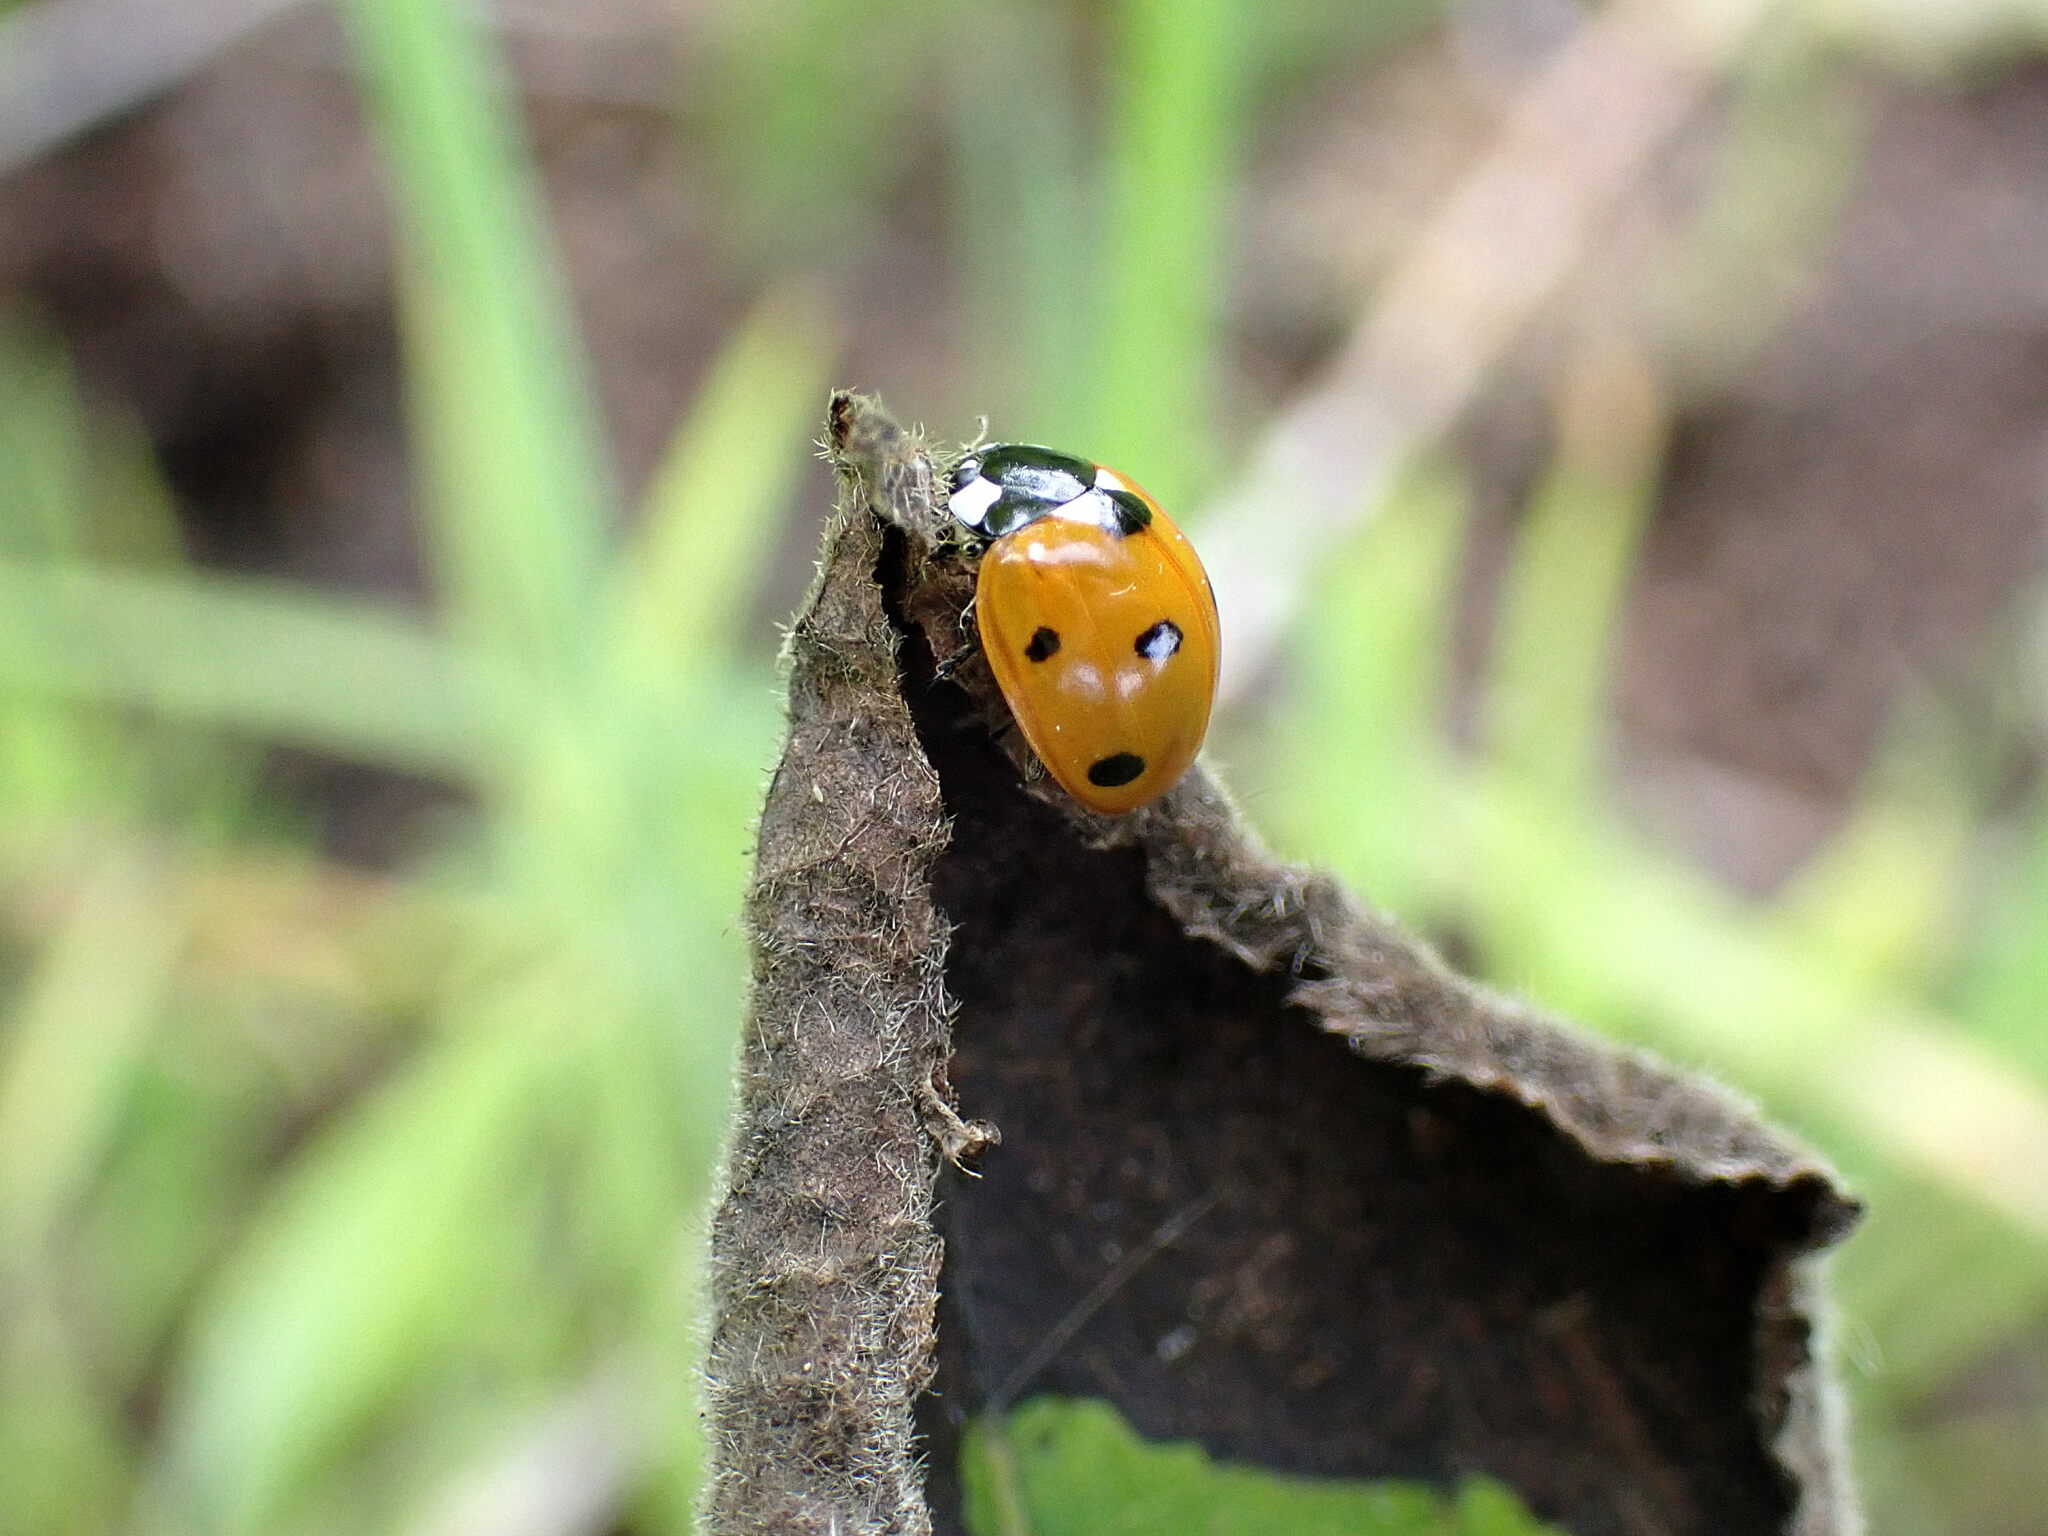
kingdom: Animalia
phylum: Arthropoda
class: Insecta
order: Coleoptera
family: Coccinellidae
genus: Coccinella
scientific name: Coccinella septempunctata
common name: Sevenspotted lady beetle
